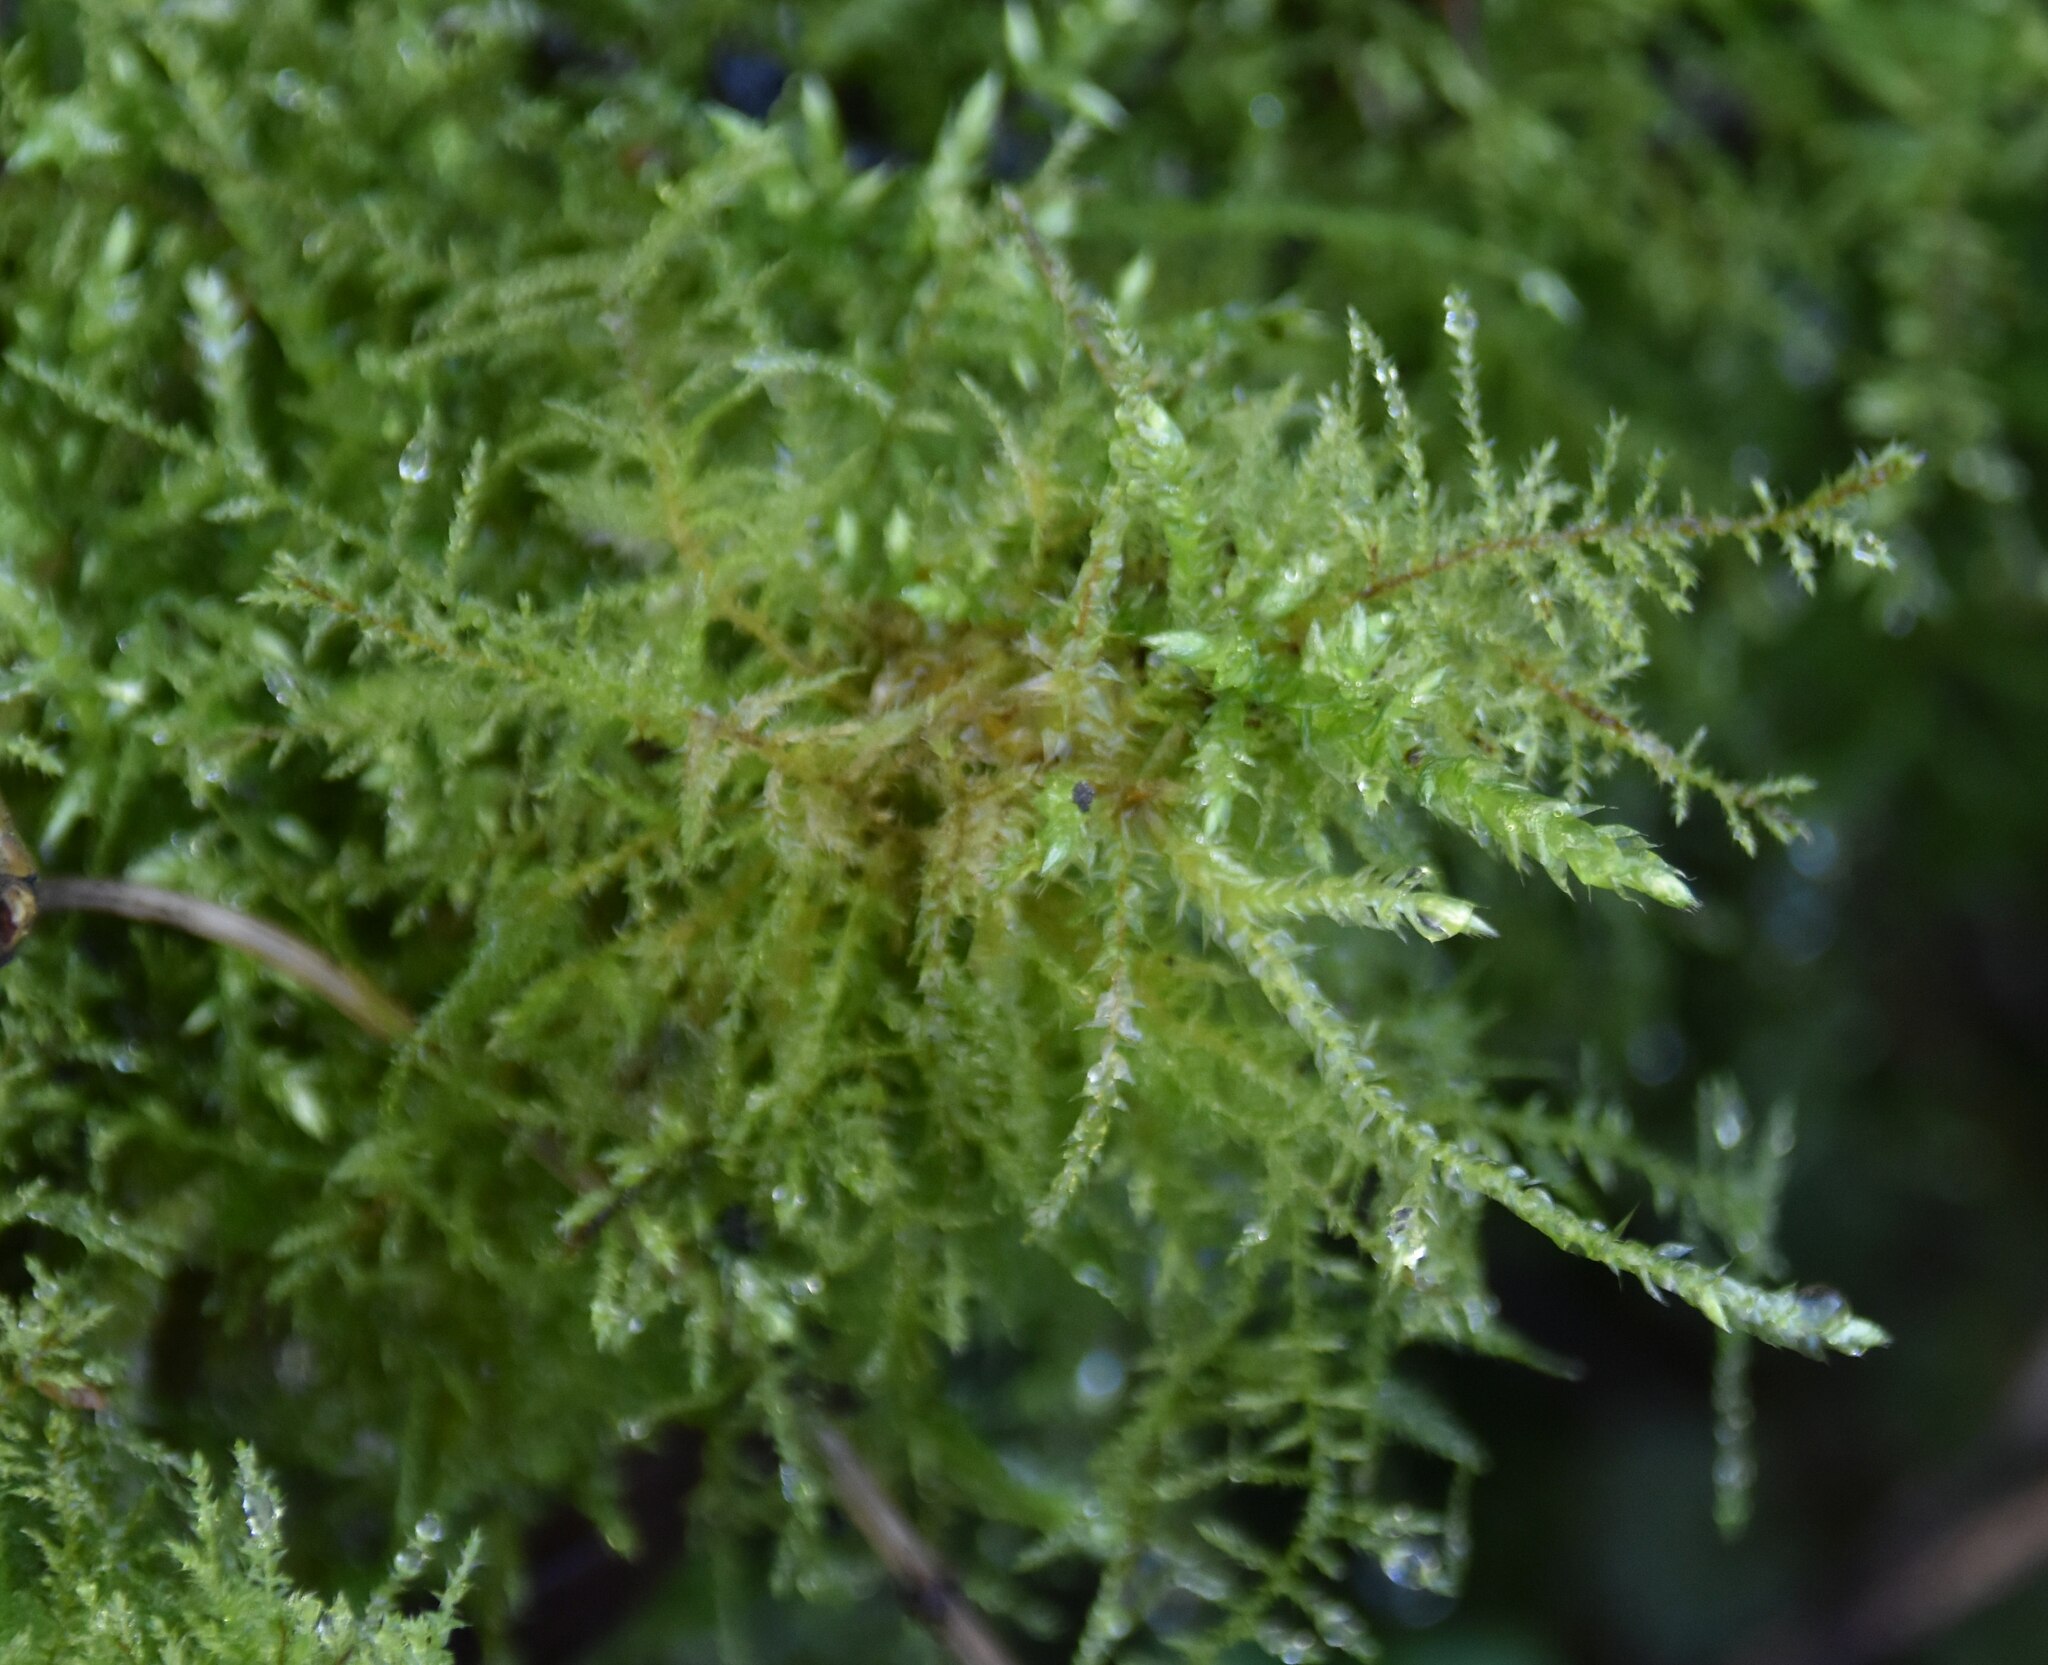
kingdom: Plantae
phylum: Bryophyta
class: Bryopsida
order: Hypnales
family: Brachytheciaceae
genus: Kindbergia
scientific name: Kindbergia praelonga
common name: Slender beaked moss
